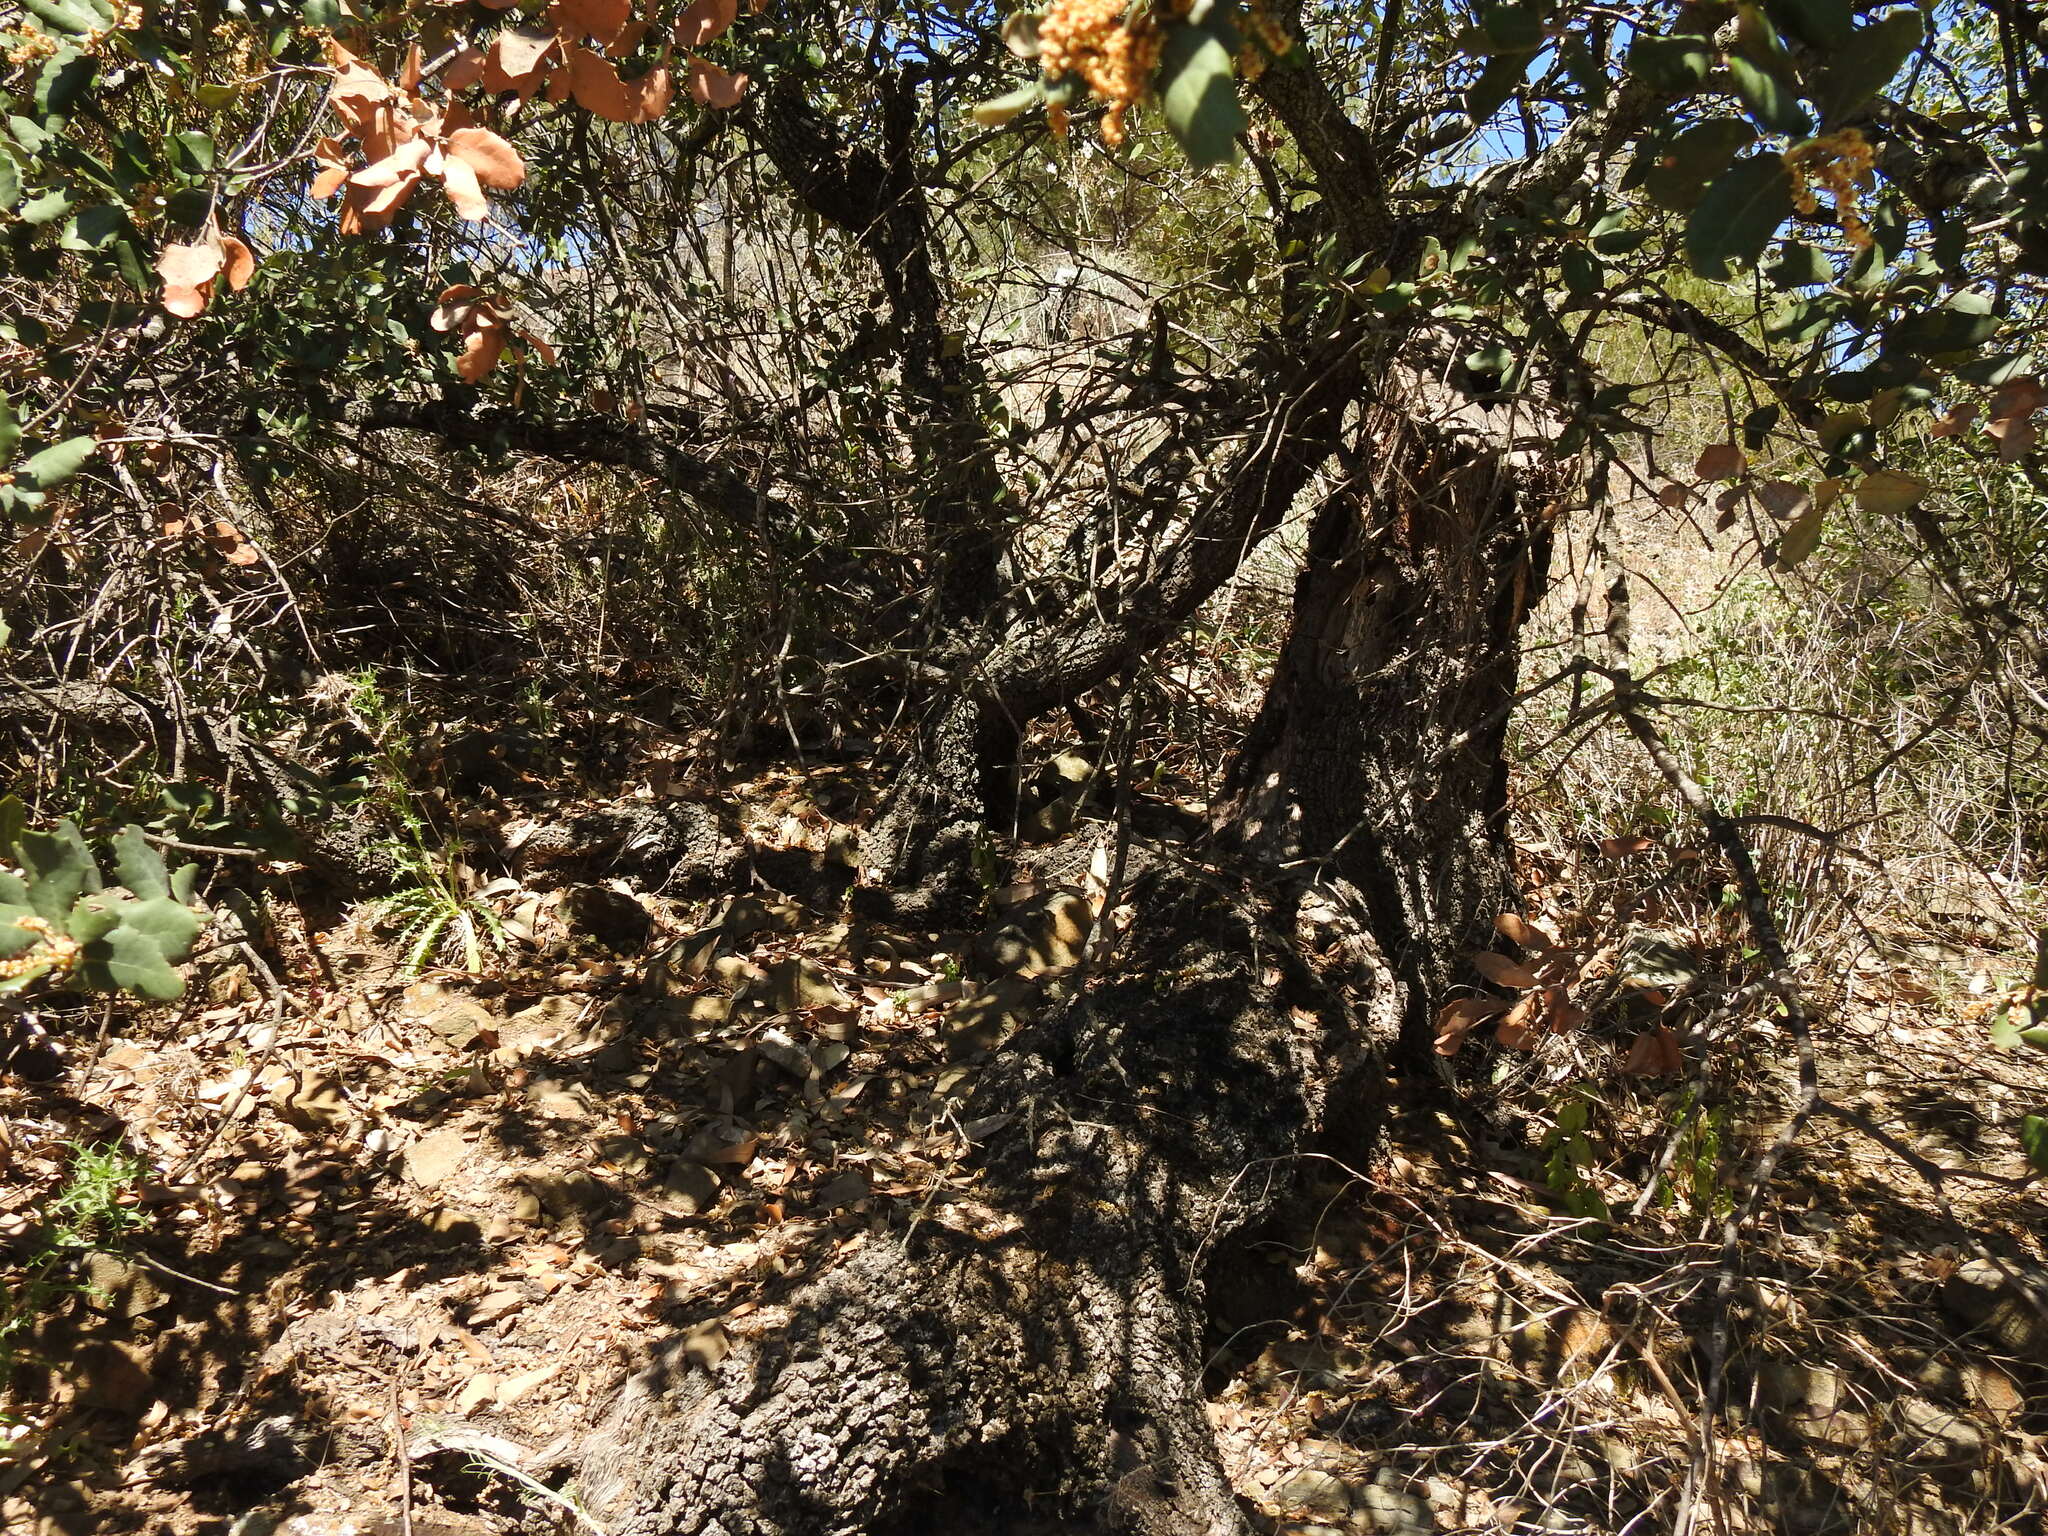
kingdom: Plantae
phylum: Tracheophyta
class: Magnoliopsida
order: Fagales
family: Fagaceae
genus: Quercus
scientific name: Quercus rotundifolia
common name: Holm oak
